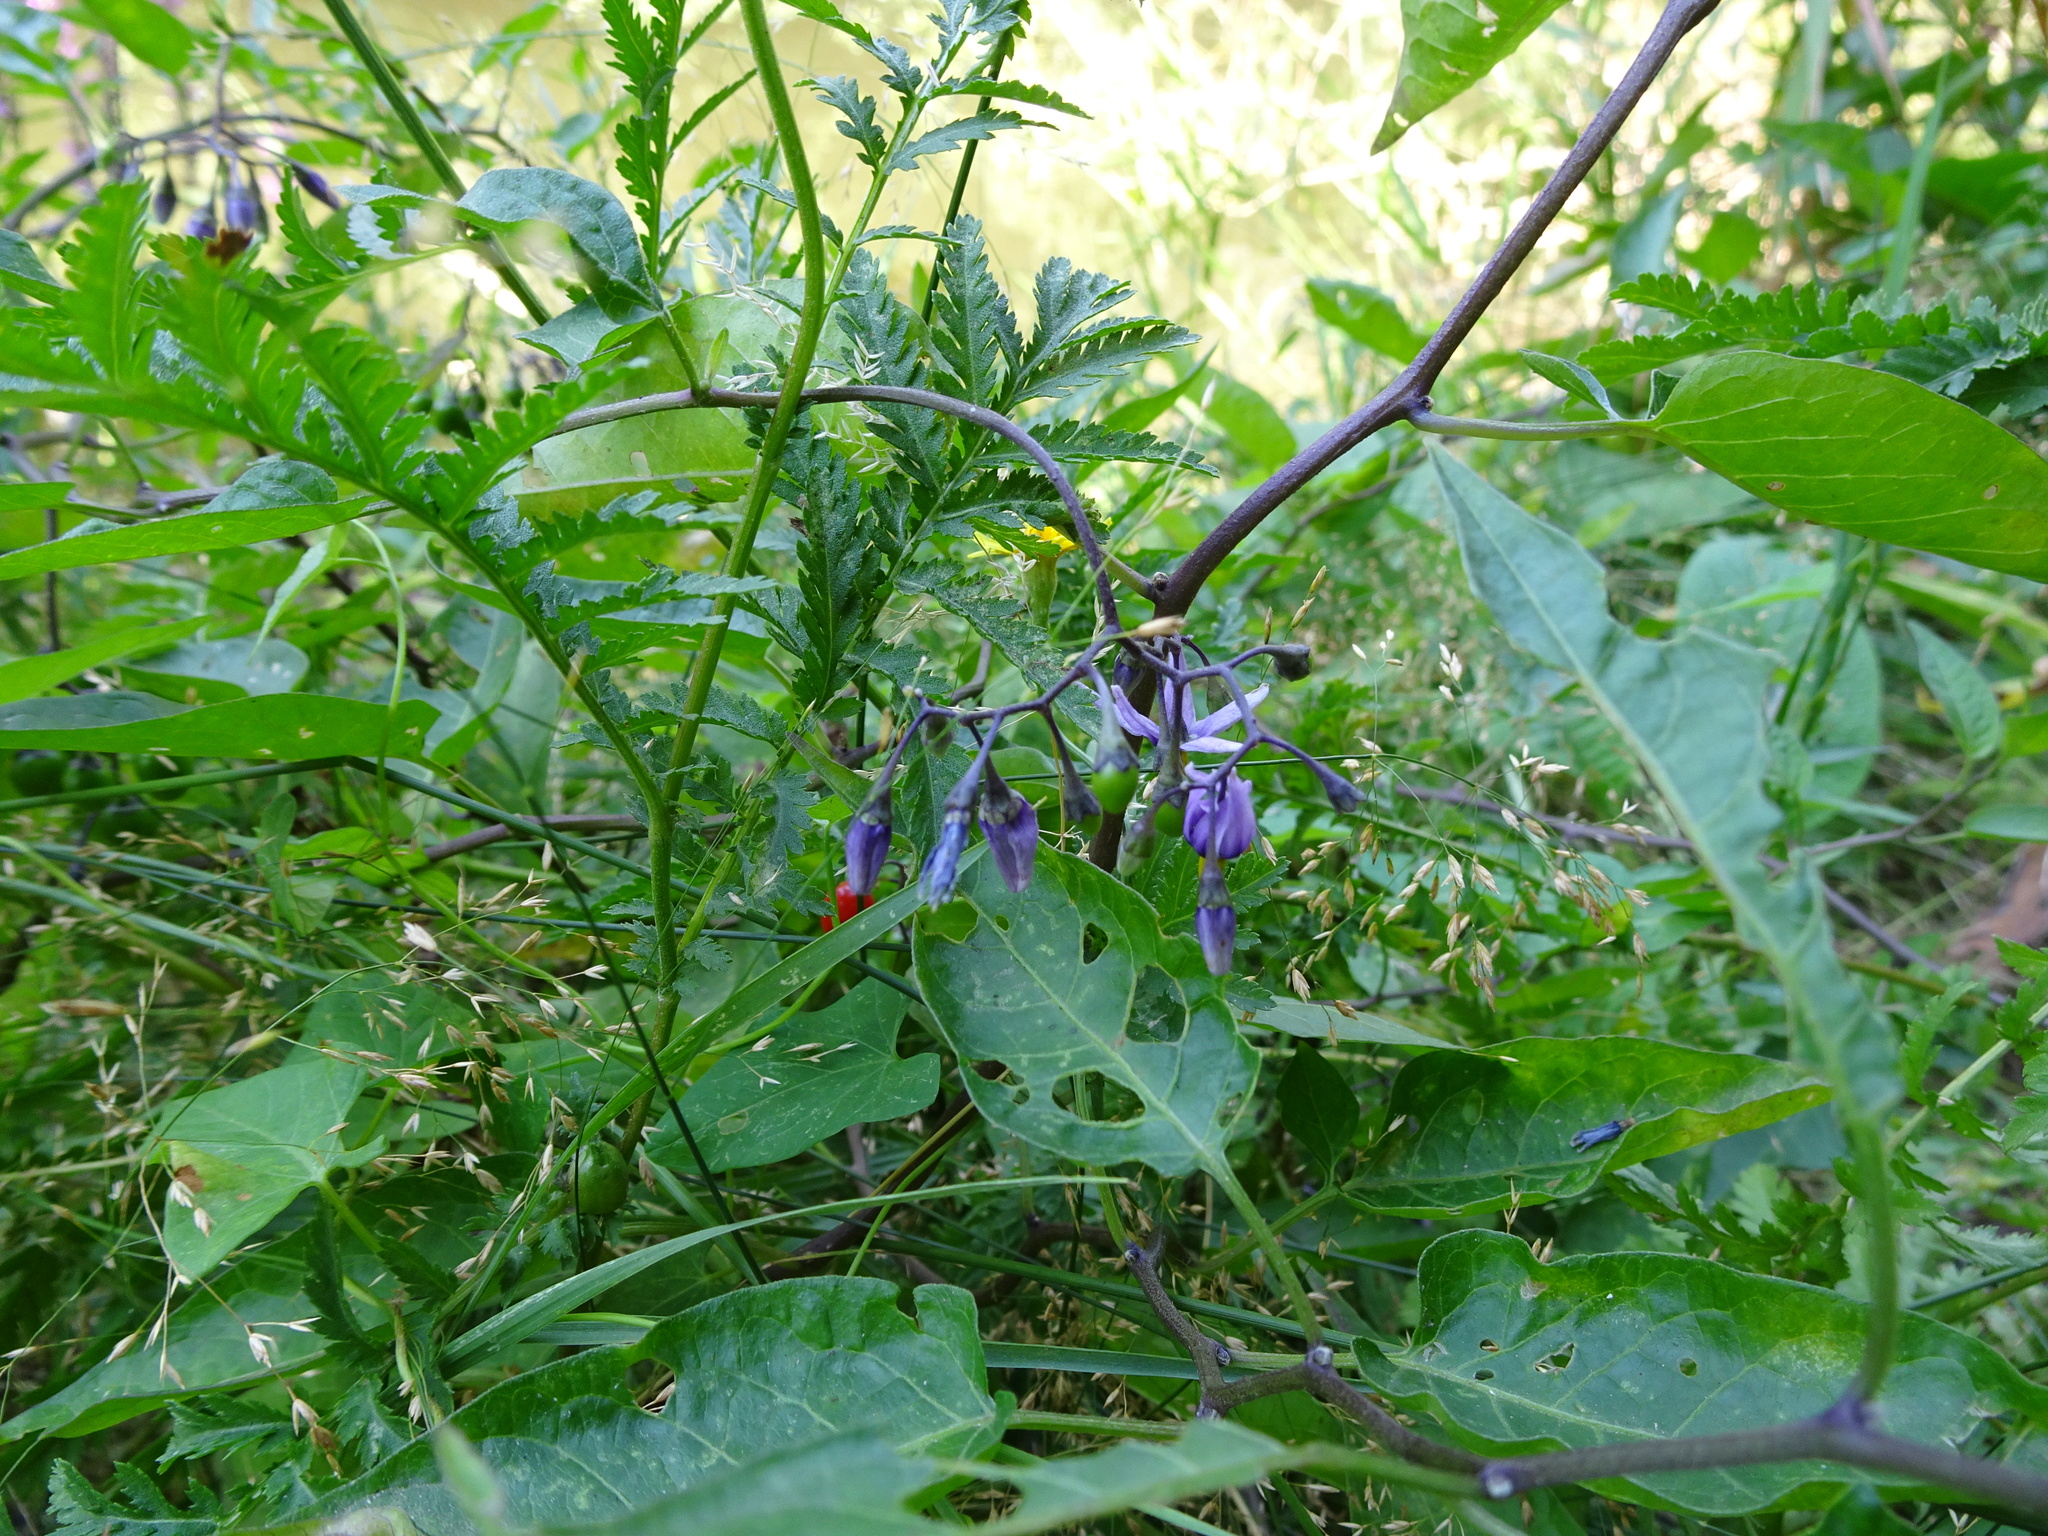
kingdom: Plantae
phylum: Tracheophyta
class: Magnoliopsida
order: Solanales
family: Solanaceae
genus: Solanum
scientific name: Solanum dulcamara
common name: Climbing nightshade
